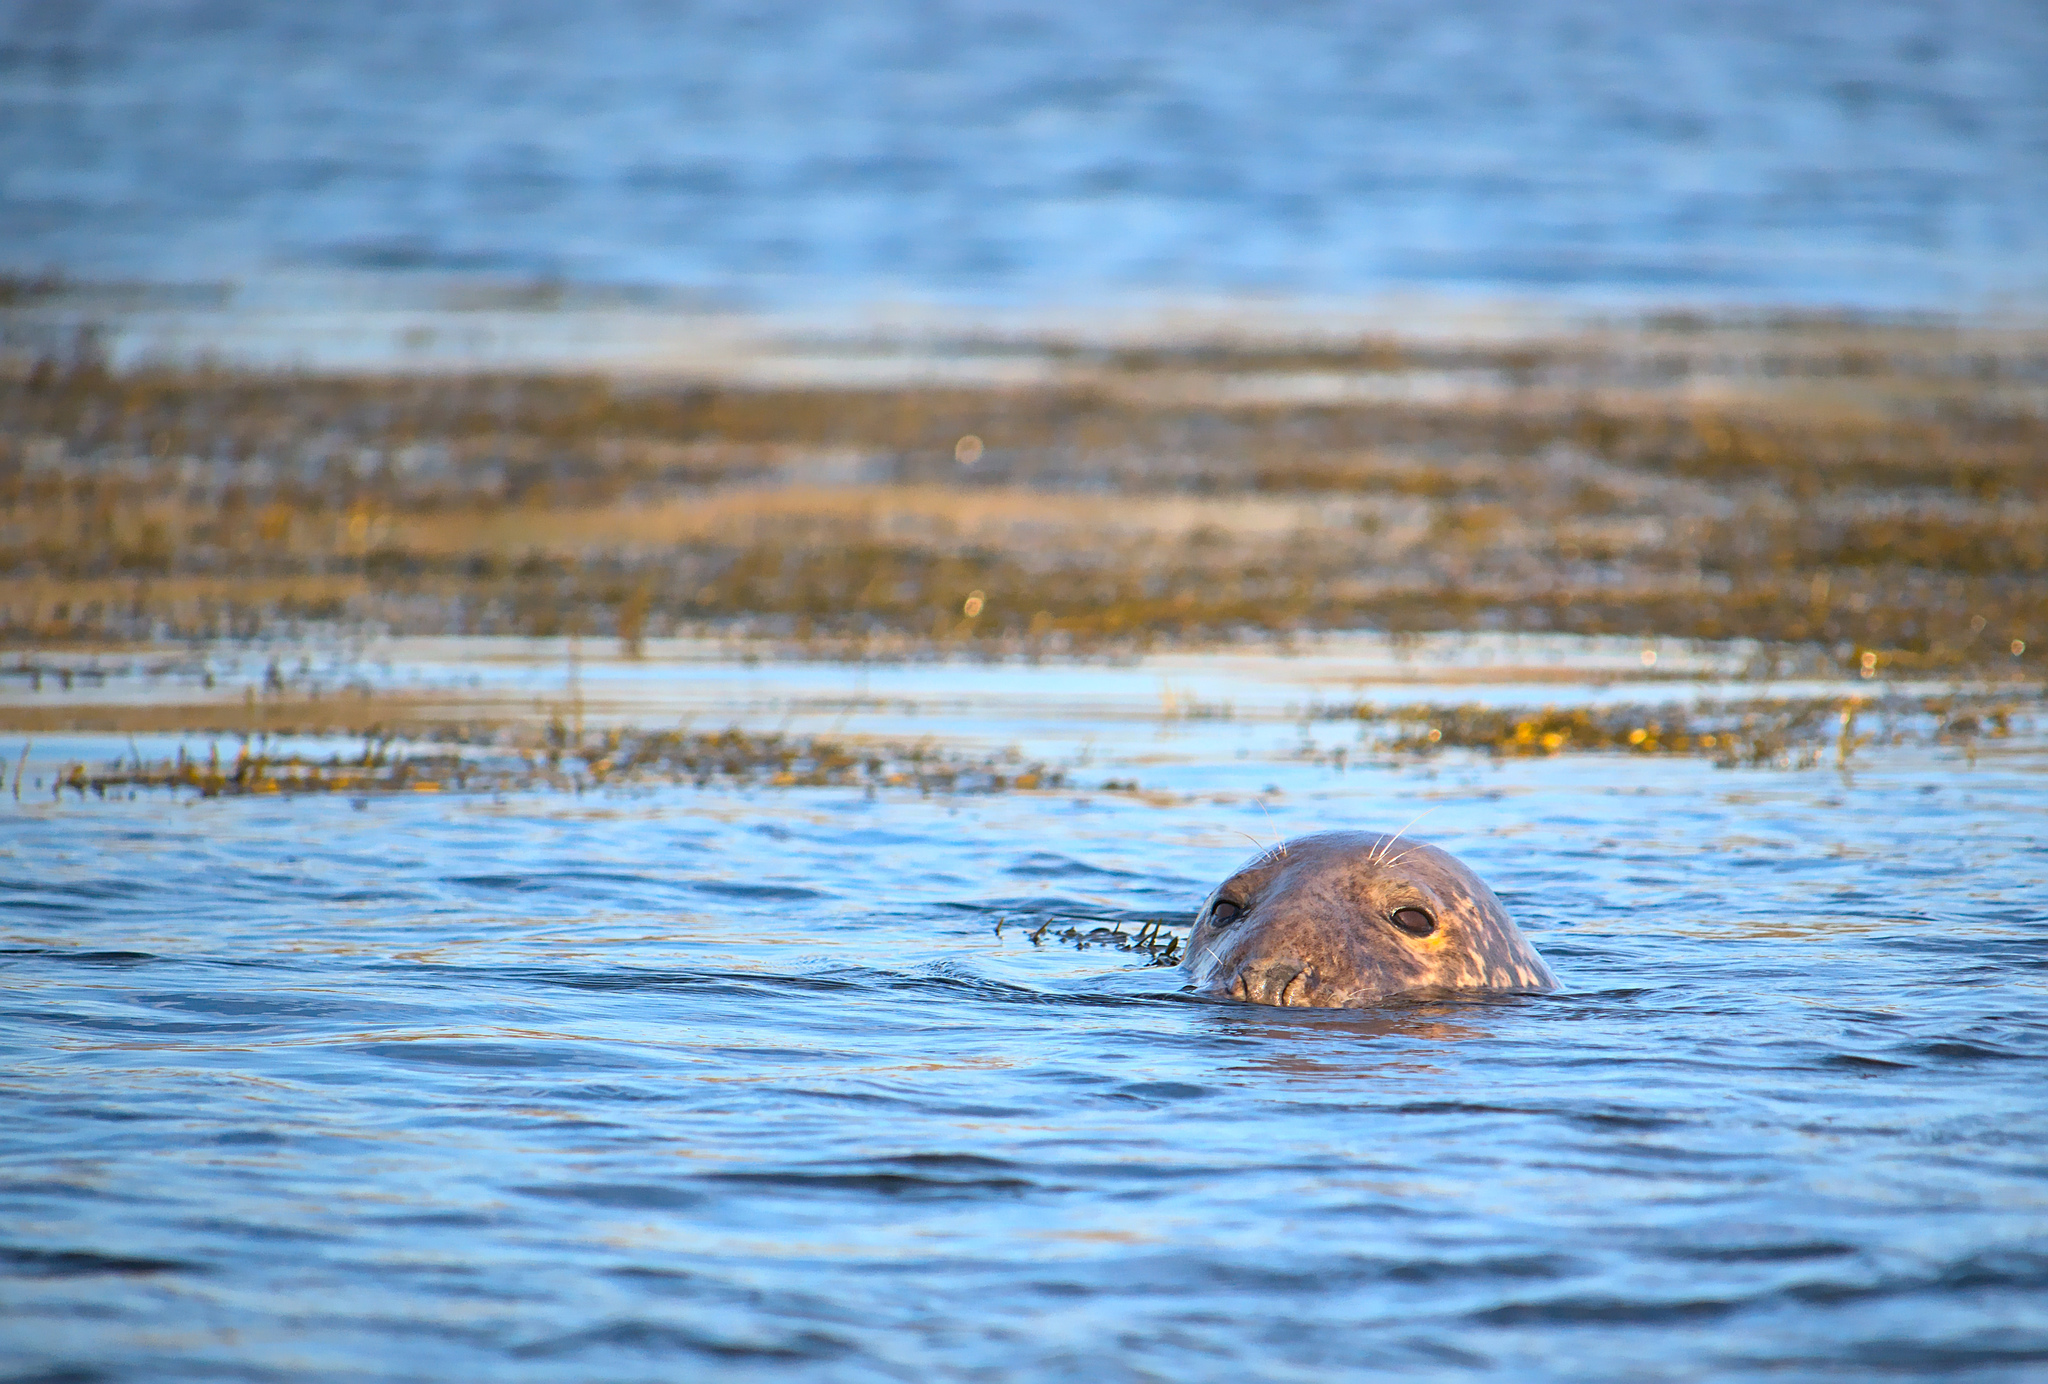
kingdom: Animalia
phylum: Chordata
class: Mammalia
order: Carnivora
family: Phocidae
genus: Halichoerus
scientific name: Halichoerus grypus
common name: Grey seal
